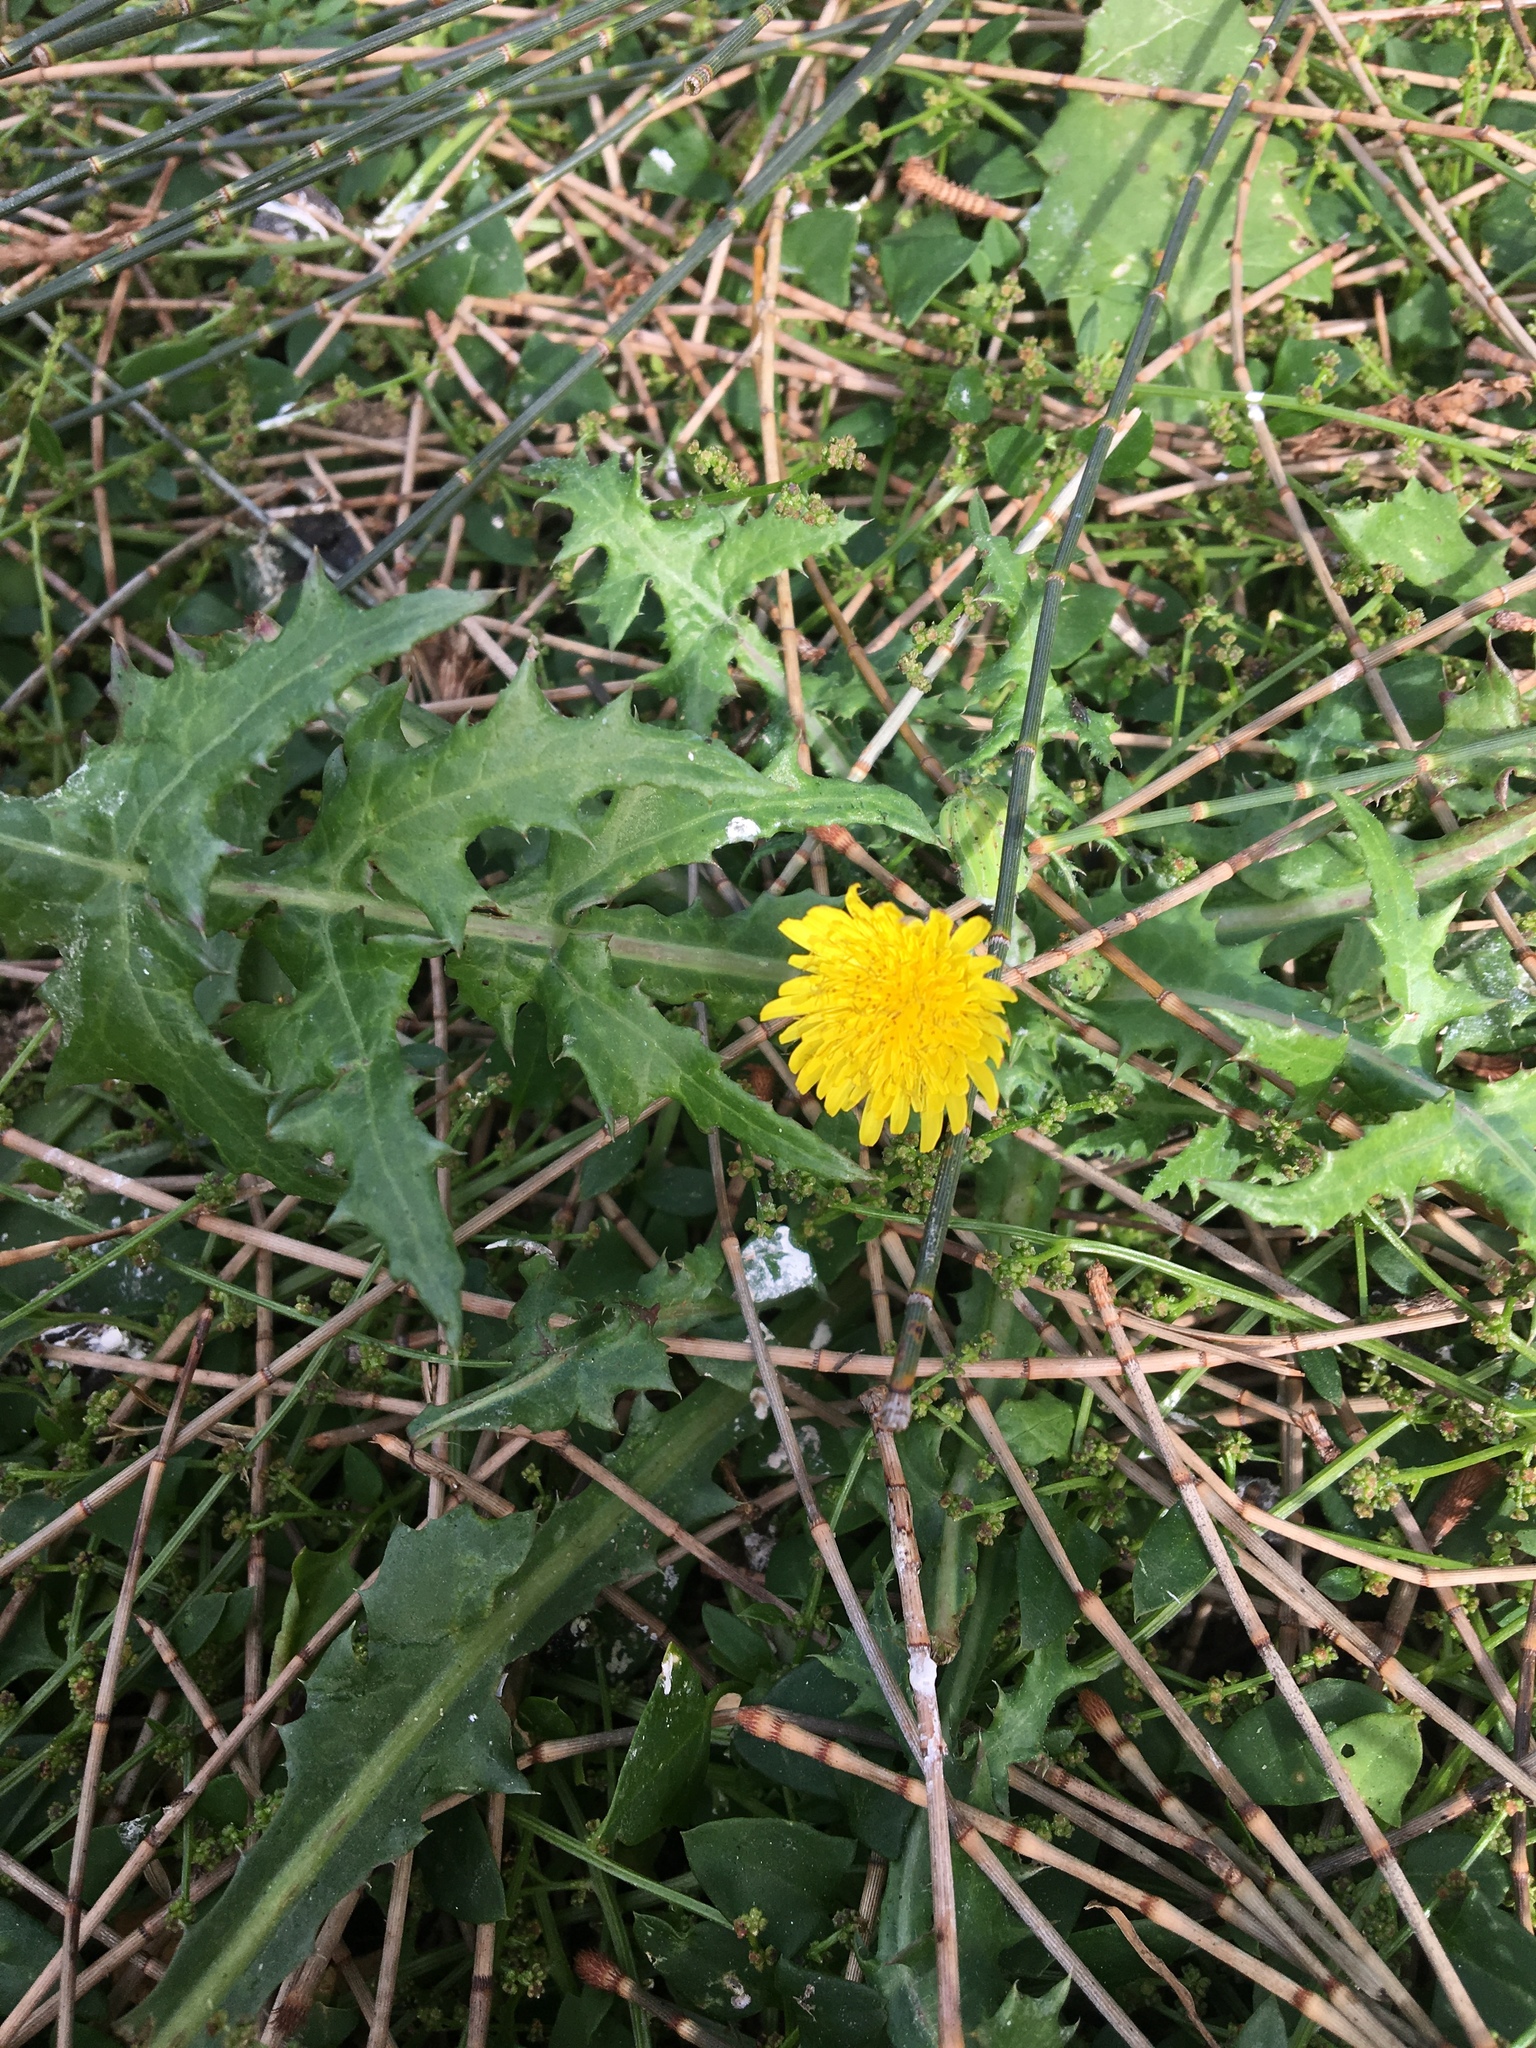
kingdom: Plantae
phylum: Tracheophyta
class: Magnoliopsida
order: Asterales
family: Asteraceae
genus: Sonchus
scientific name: Sonchus oleraceus
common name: Common sowthistle
